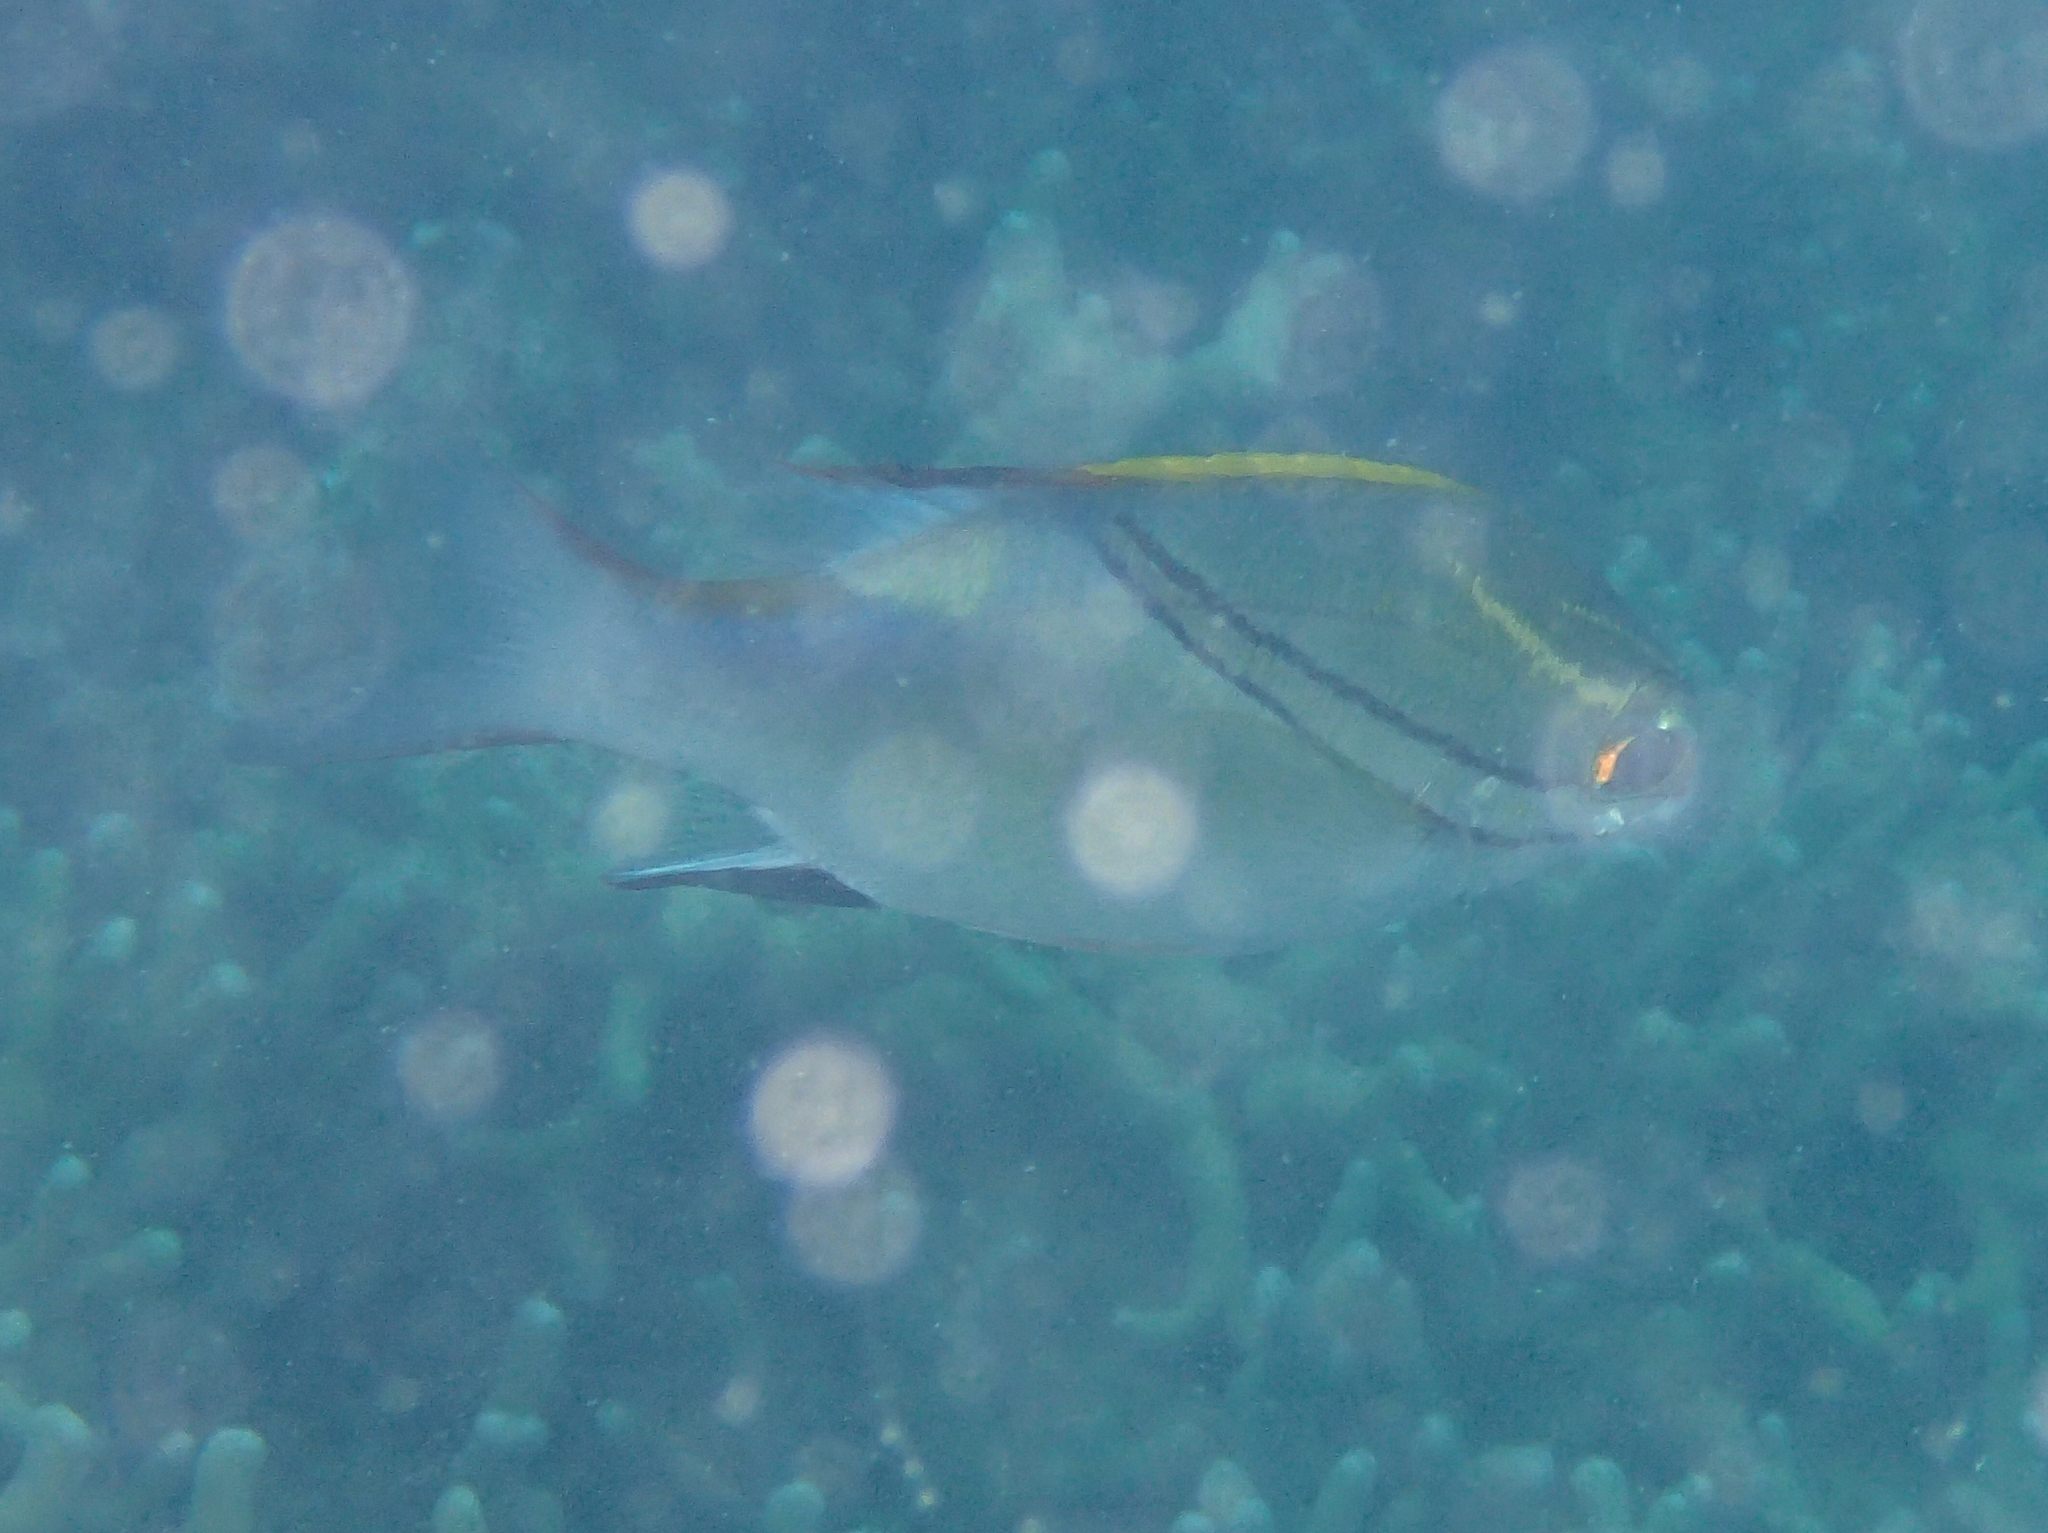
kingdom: Animalia
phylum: Chordata
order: Perciformes
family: Nemipteridae
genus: Scolopsis
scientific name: Scolopsis bilineata
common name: Two-lined monocle bream
